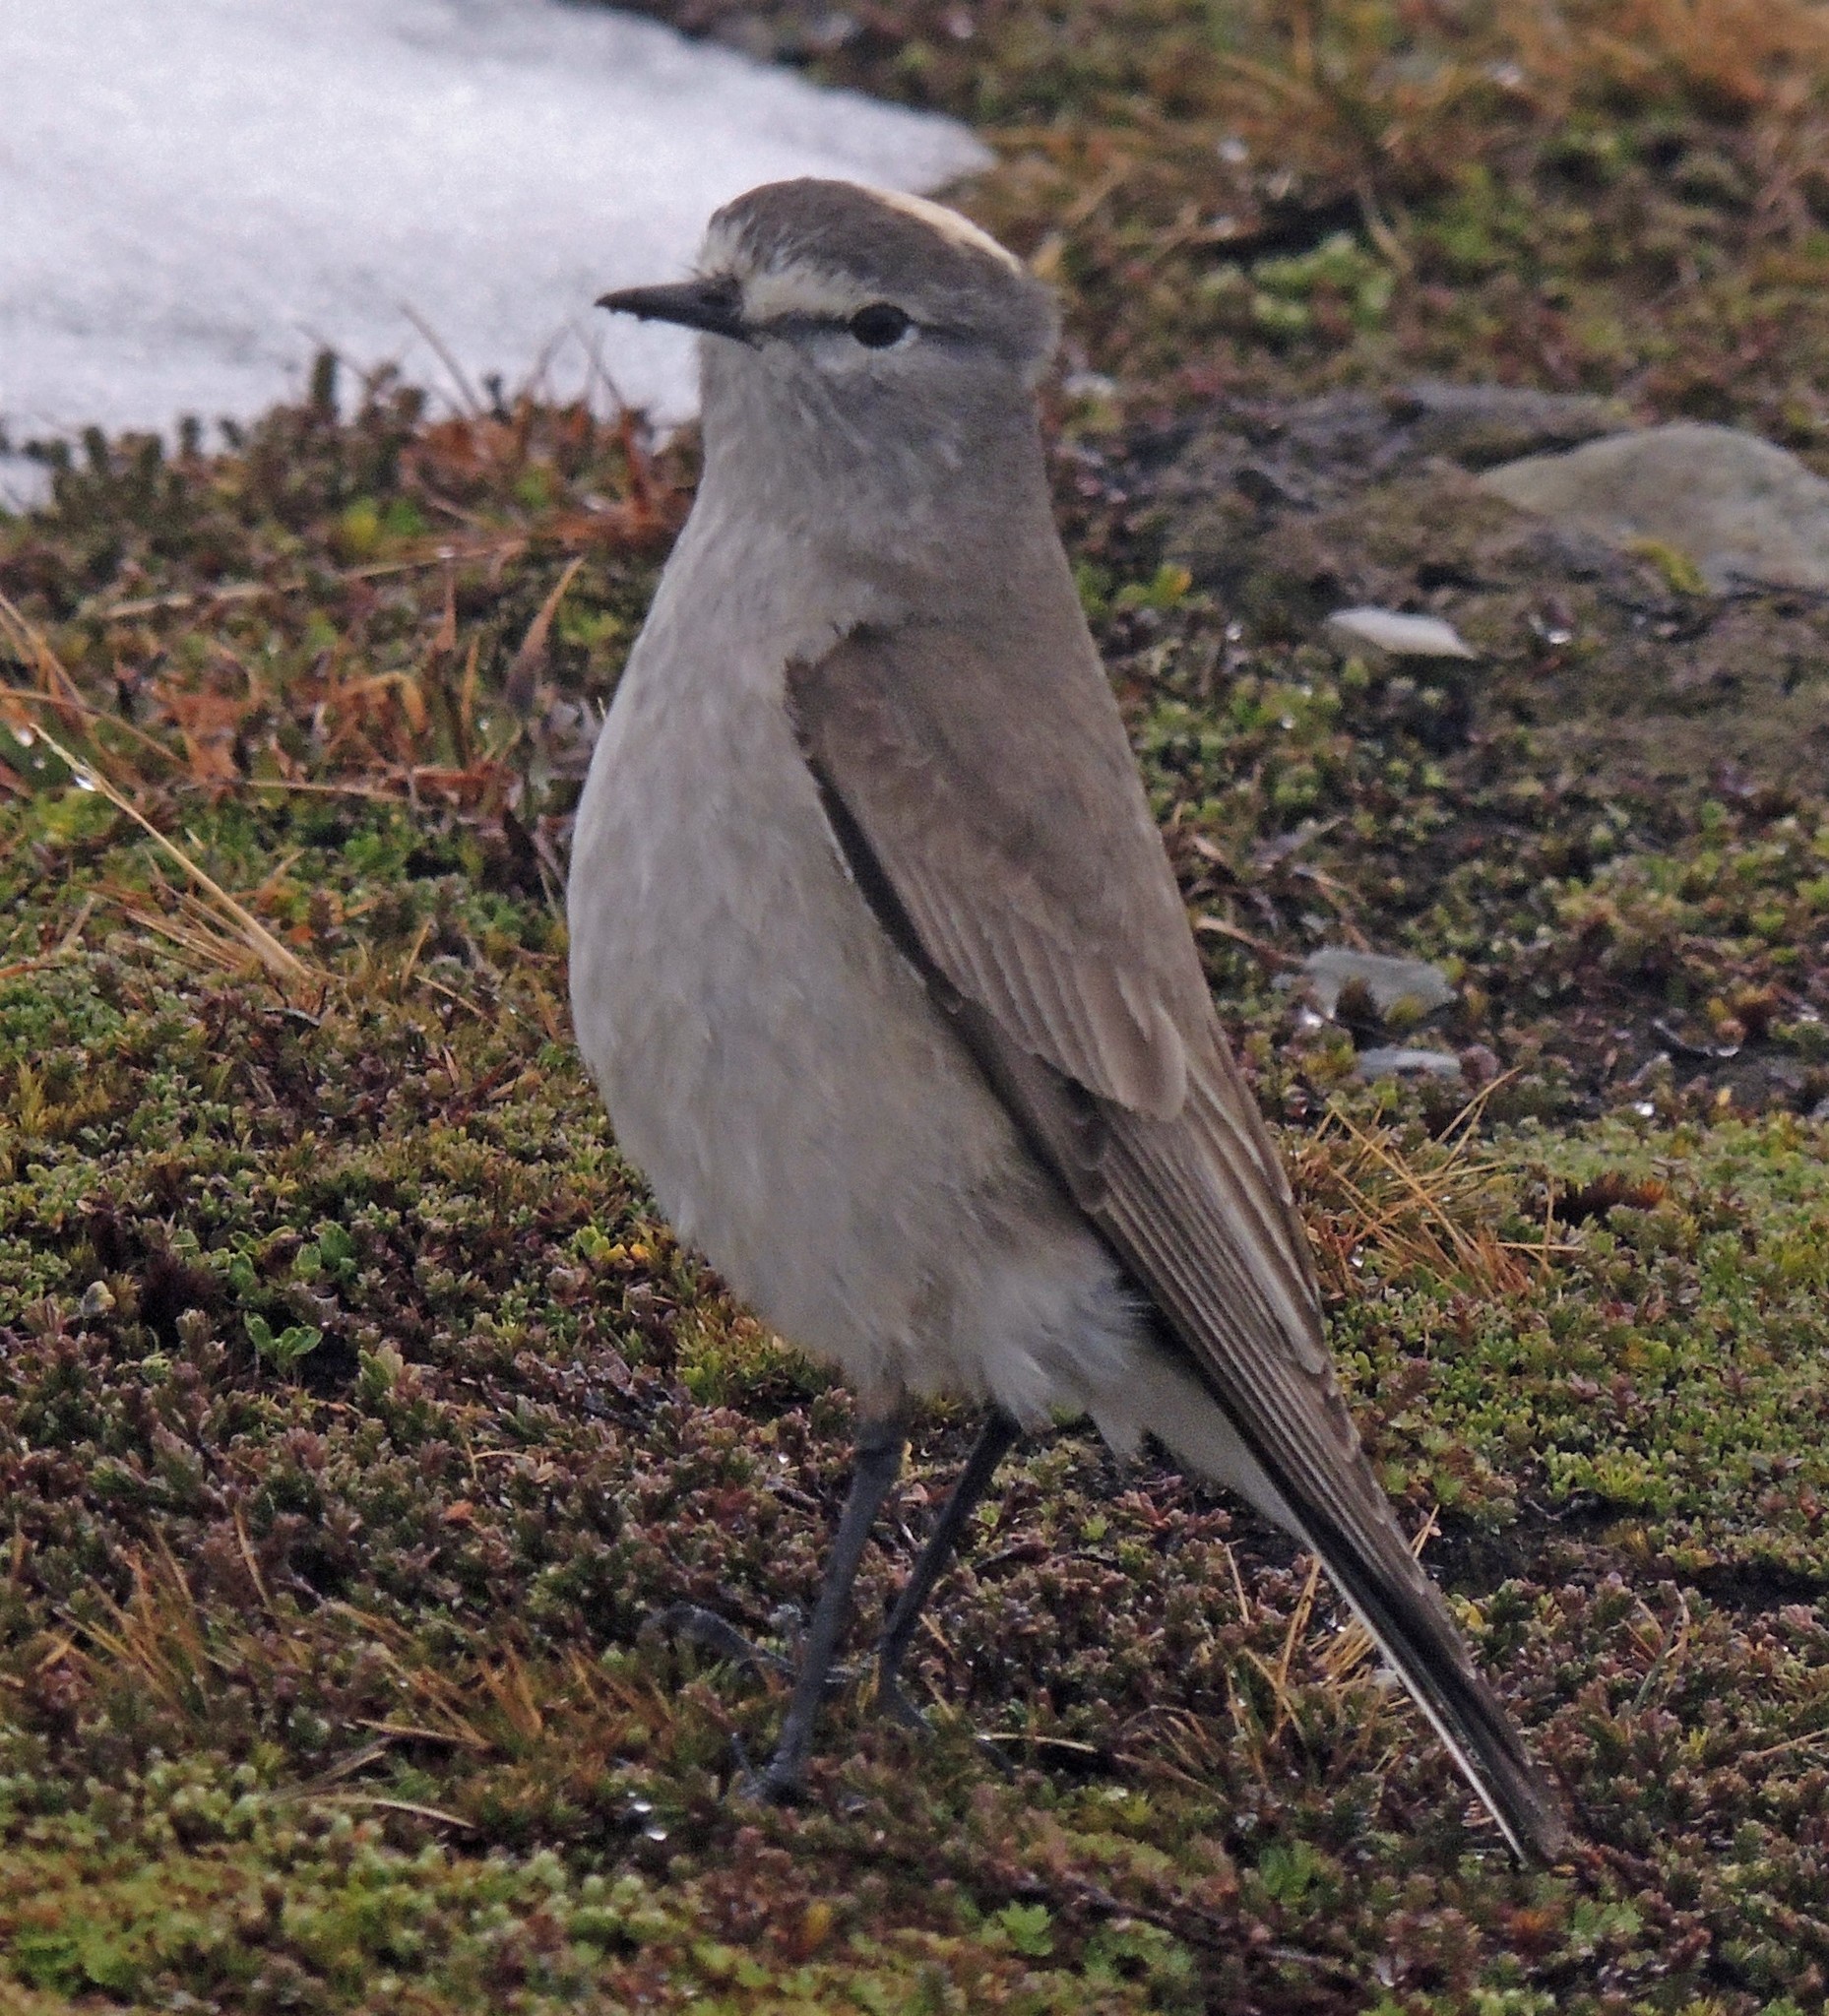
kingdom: Animalia
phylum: Chordata
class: Aves
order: Passeriformes
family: Tyrannidae
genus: Muscisaxicola
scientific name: Muscisaxicola flavinucha
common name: Ochre-naped ground tyrant
